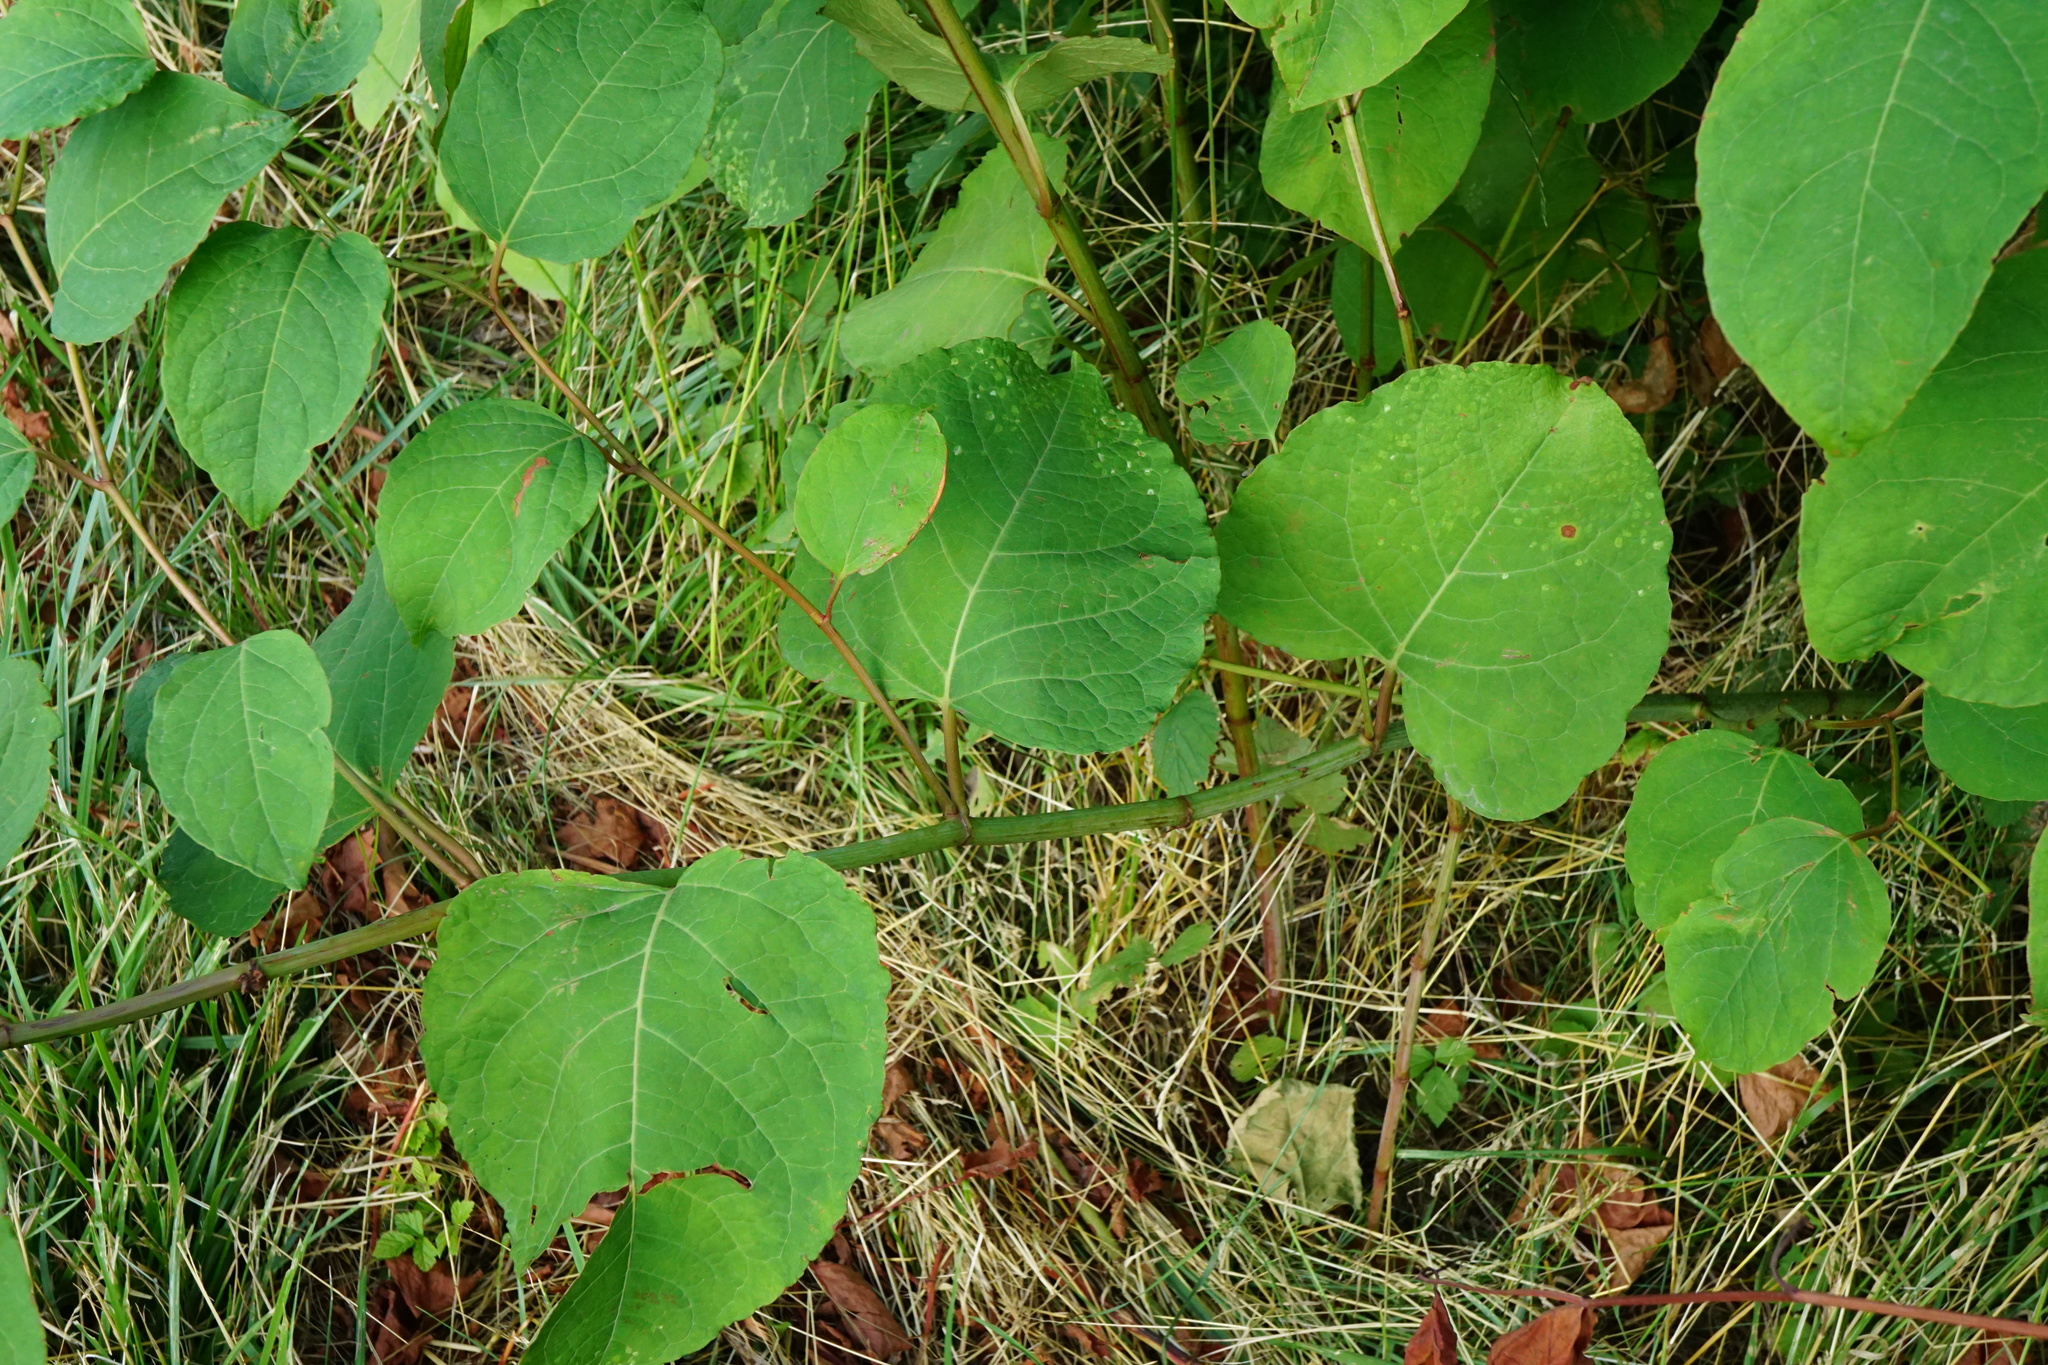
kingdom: Plantae
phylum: Tracheophyta
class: Magnoliopsida
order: Caryophyllales
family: Polygonaceae
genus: Reynoutria
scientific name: Reynoutria bohemica
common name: Bohemian knotweed
